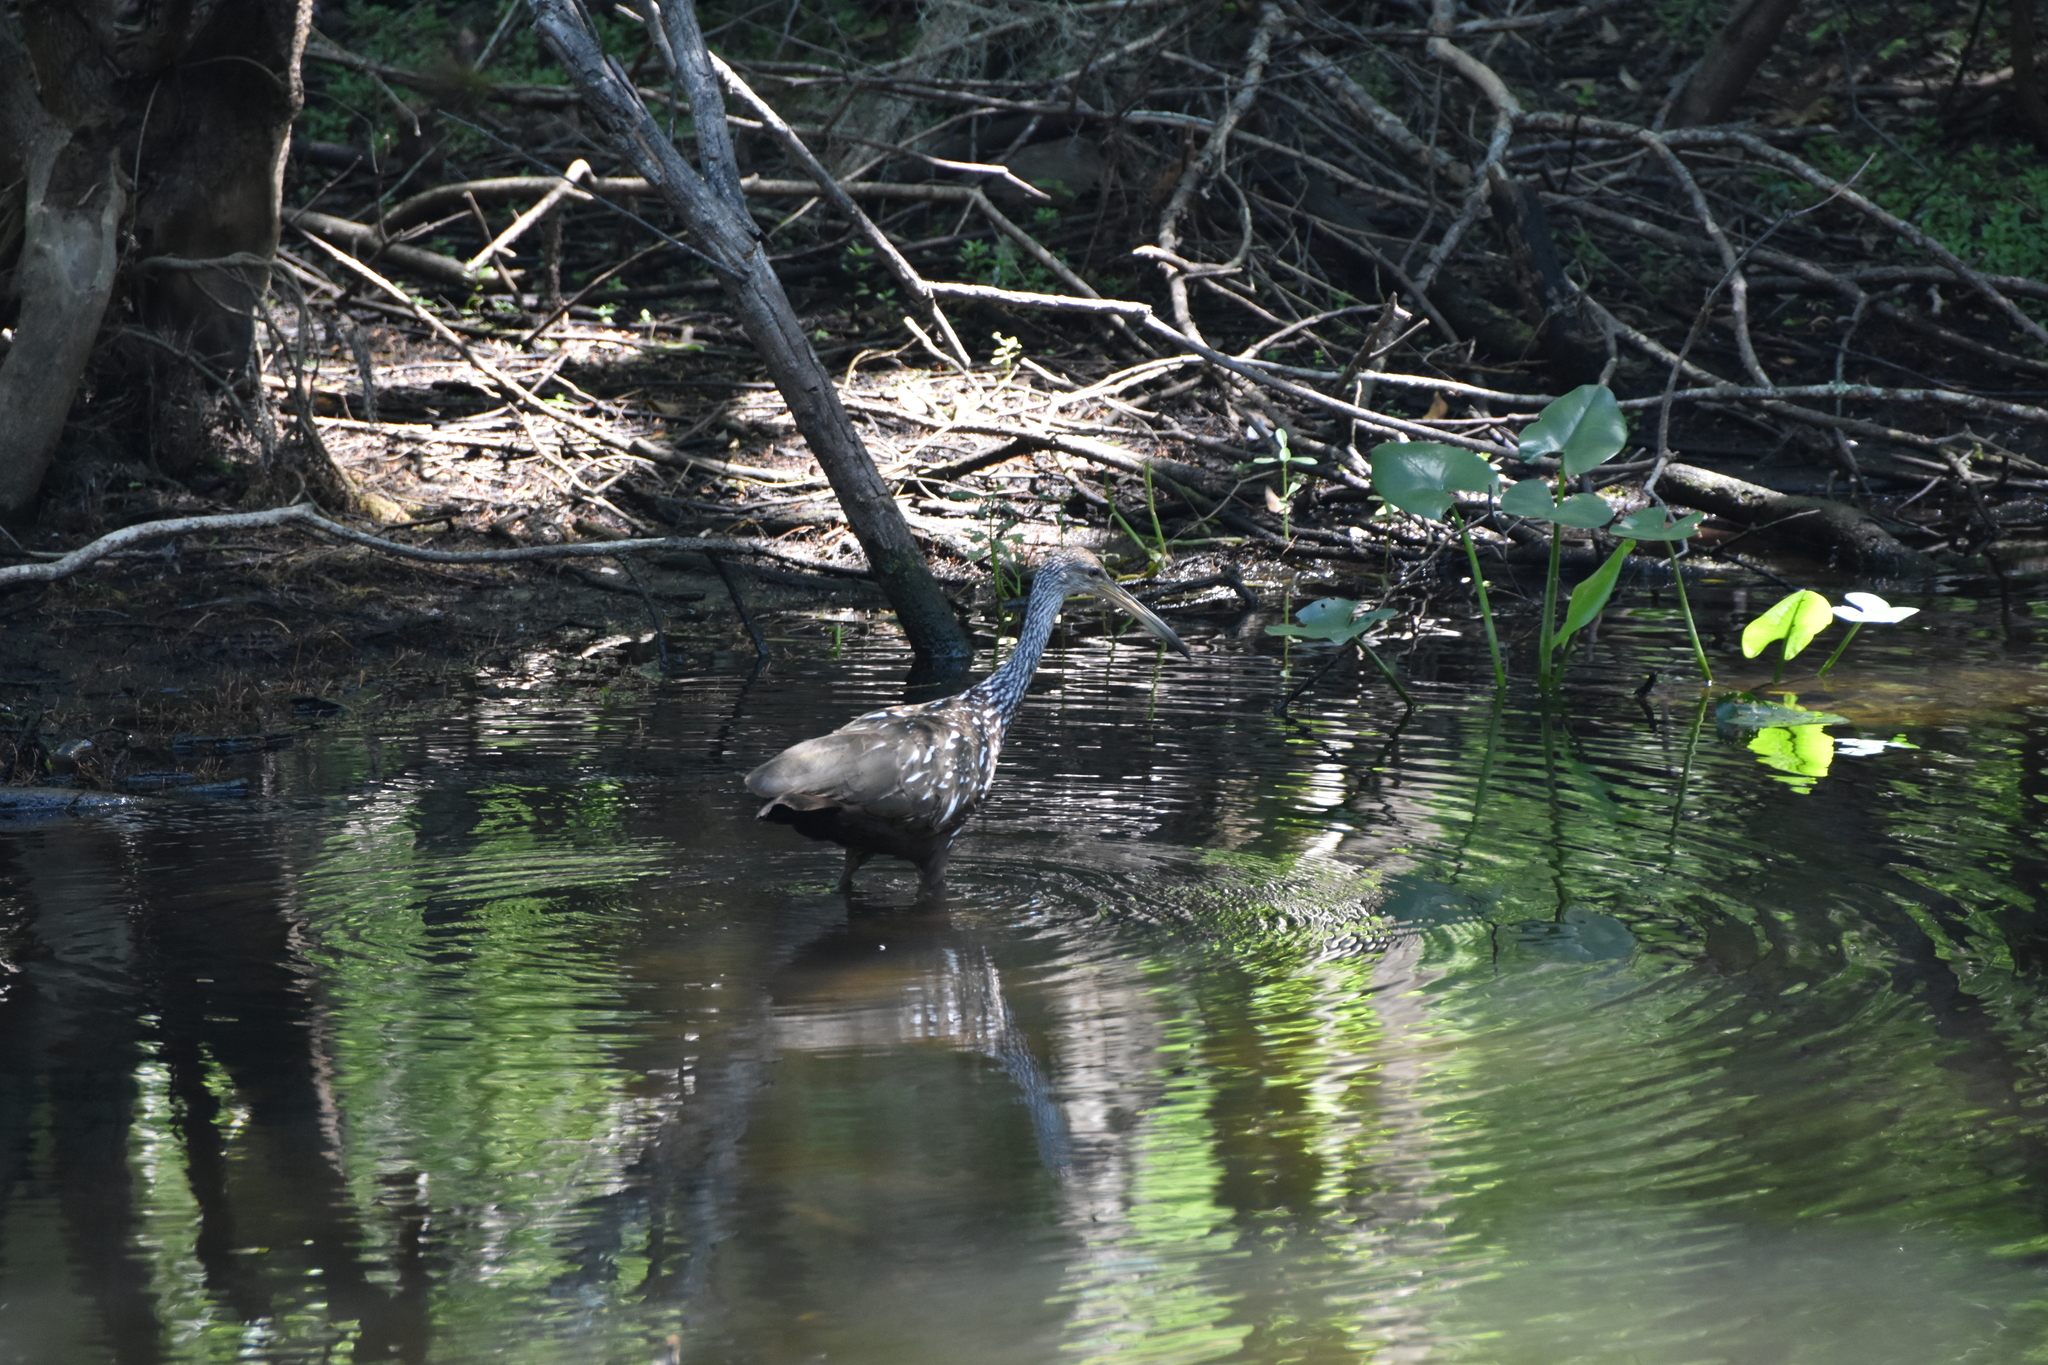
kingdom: Animalia
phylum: Chordata
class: Aves
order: Gruiformes
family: Aramidae
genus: Aramus
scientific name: Aramus guarauna
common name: Limpkin
